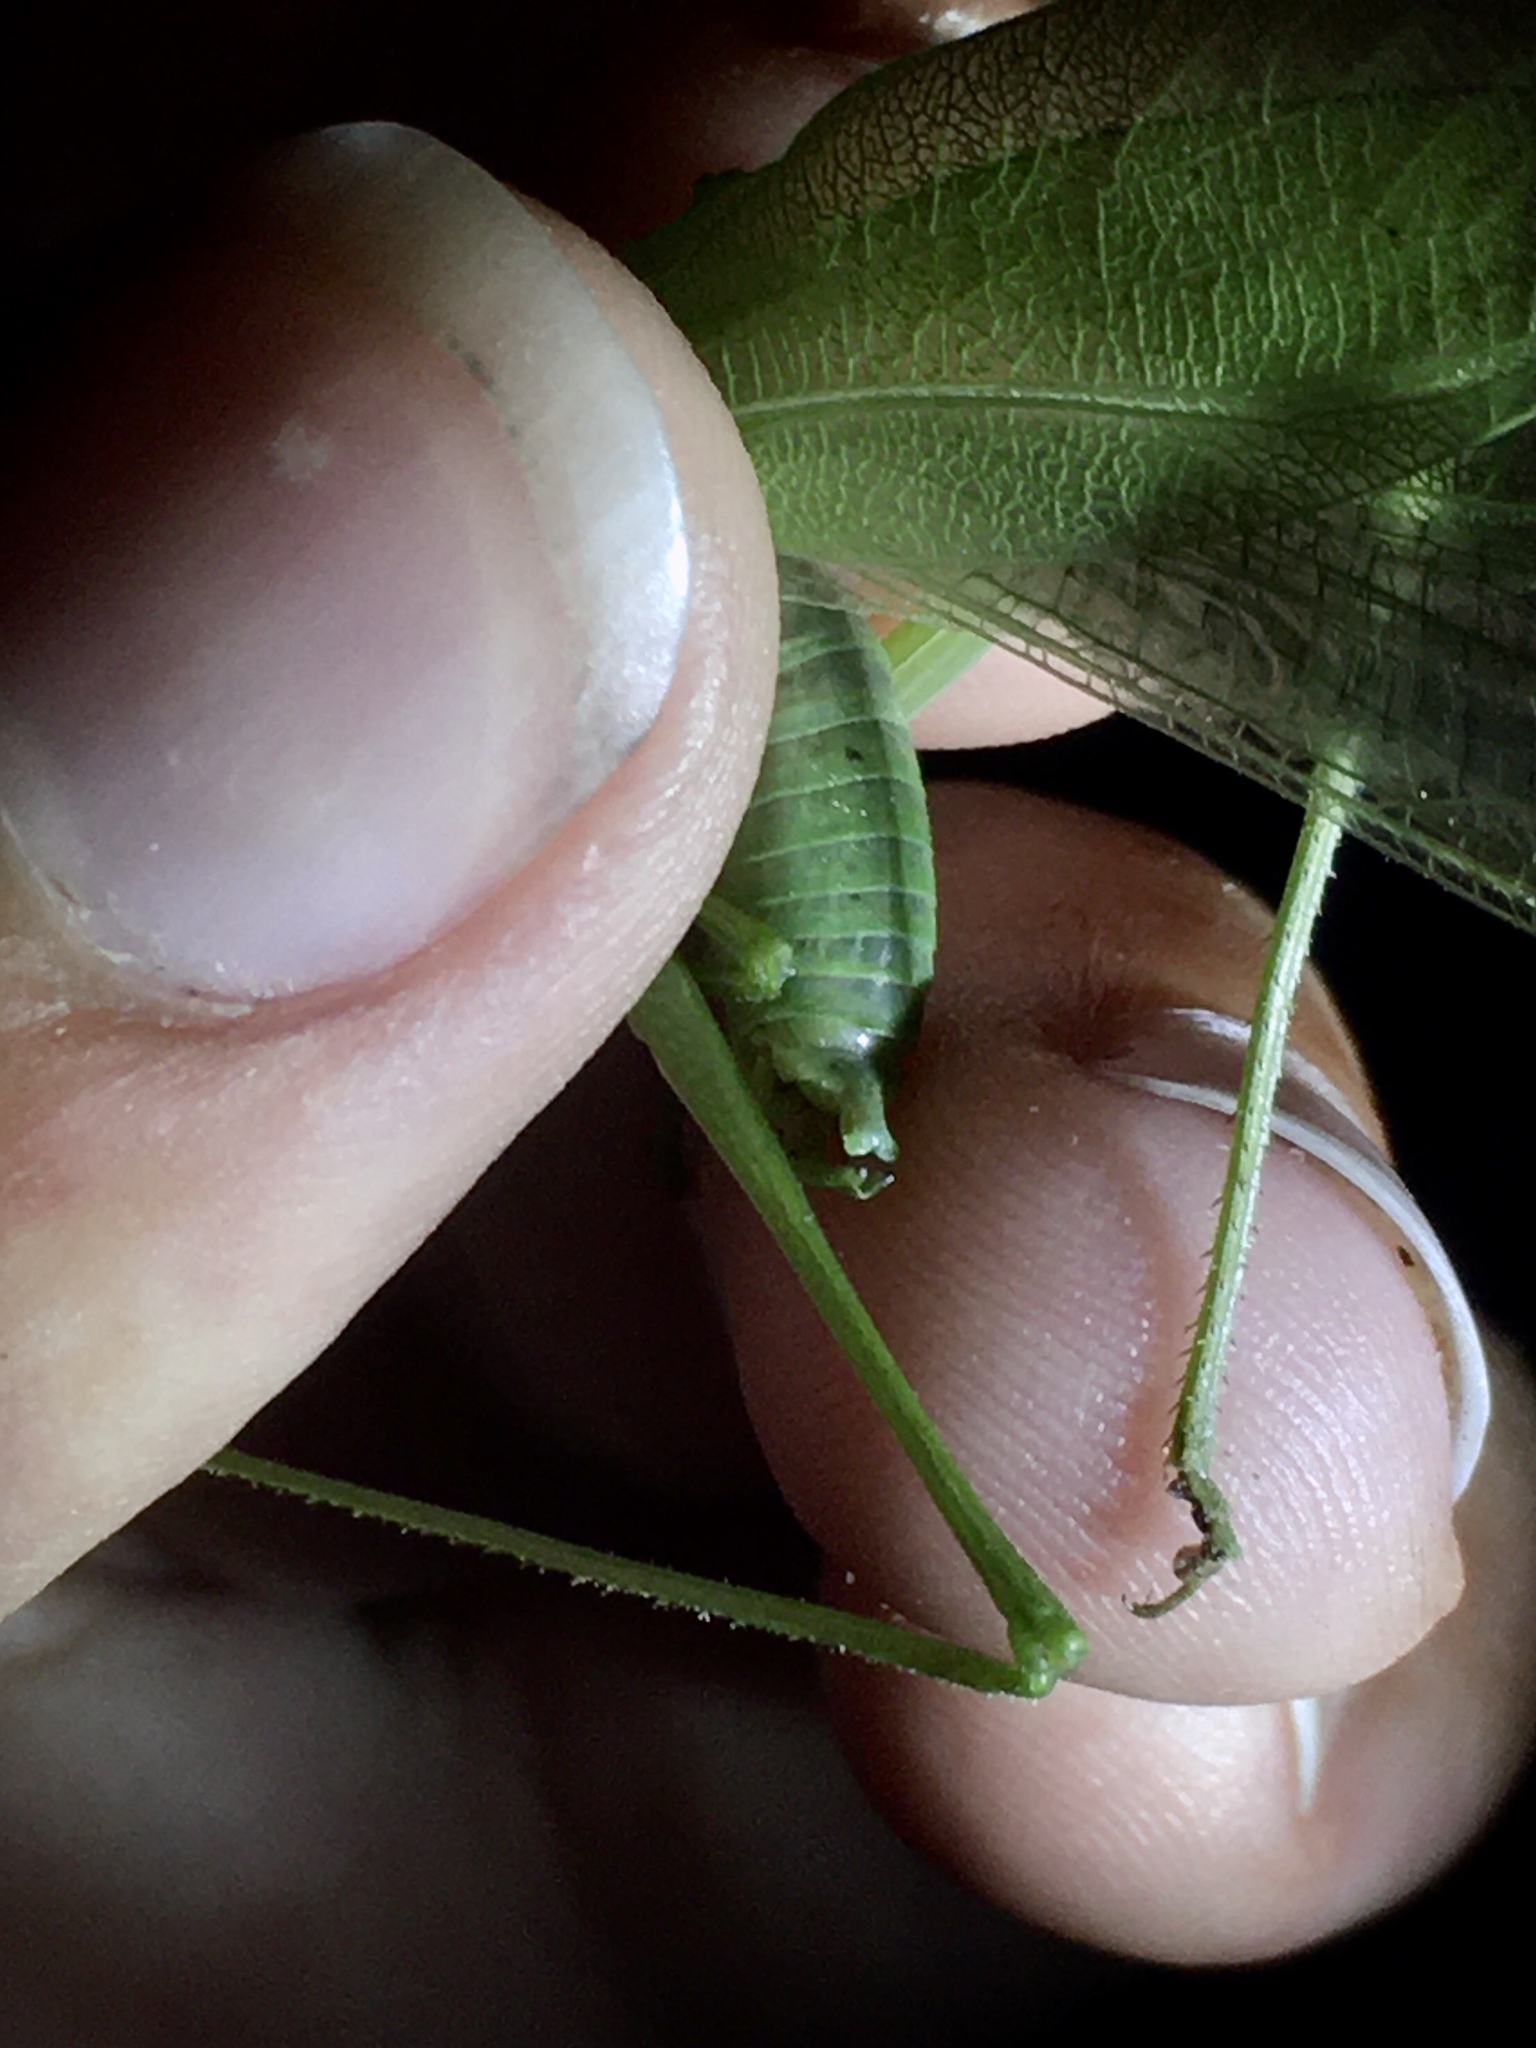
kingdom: Animalia
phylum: Arthropoda
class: Insecta
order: Orthoptera
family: Tettigoniidae
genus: Scudderia
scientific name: Scudderia pistillata
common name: Broad-winged bush-katydid
